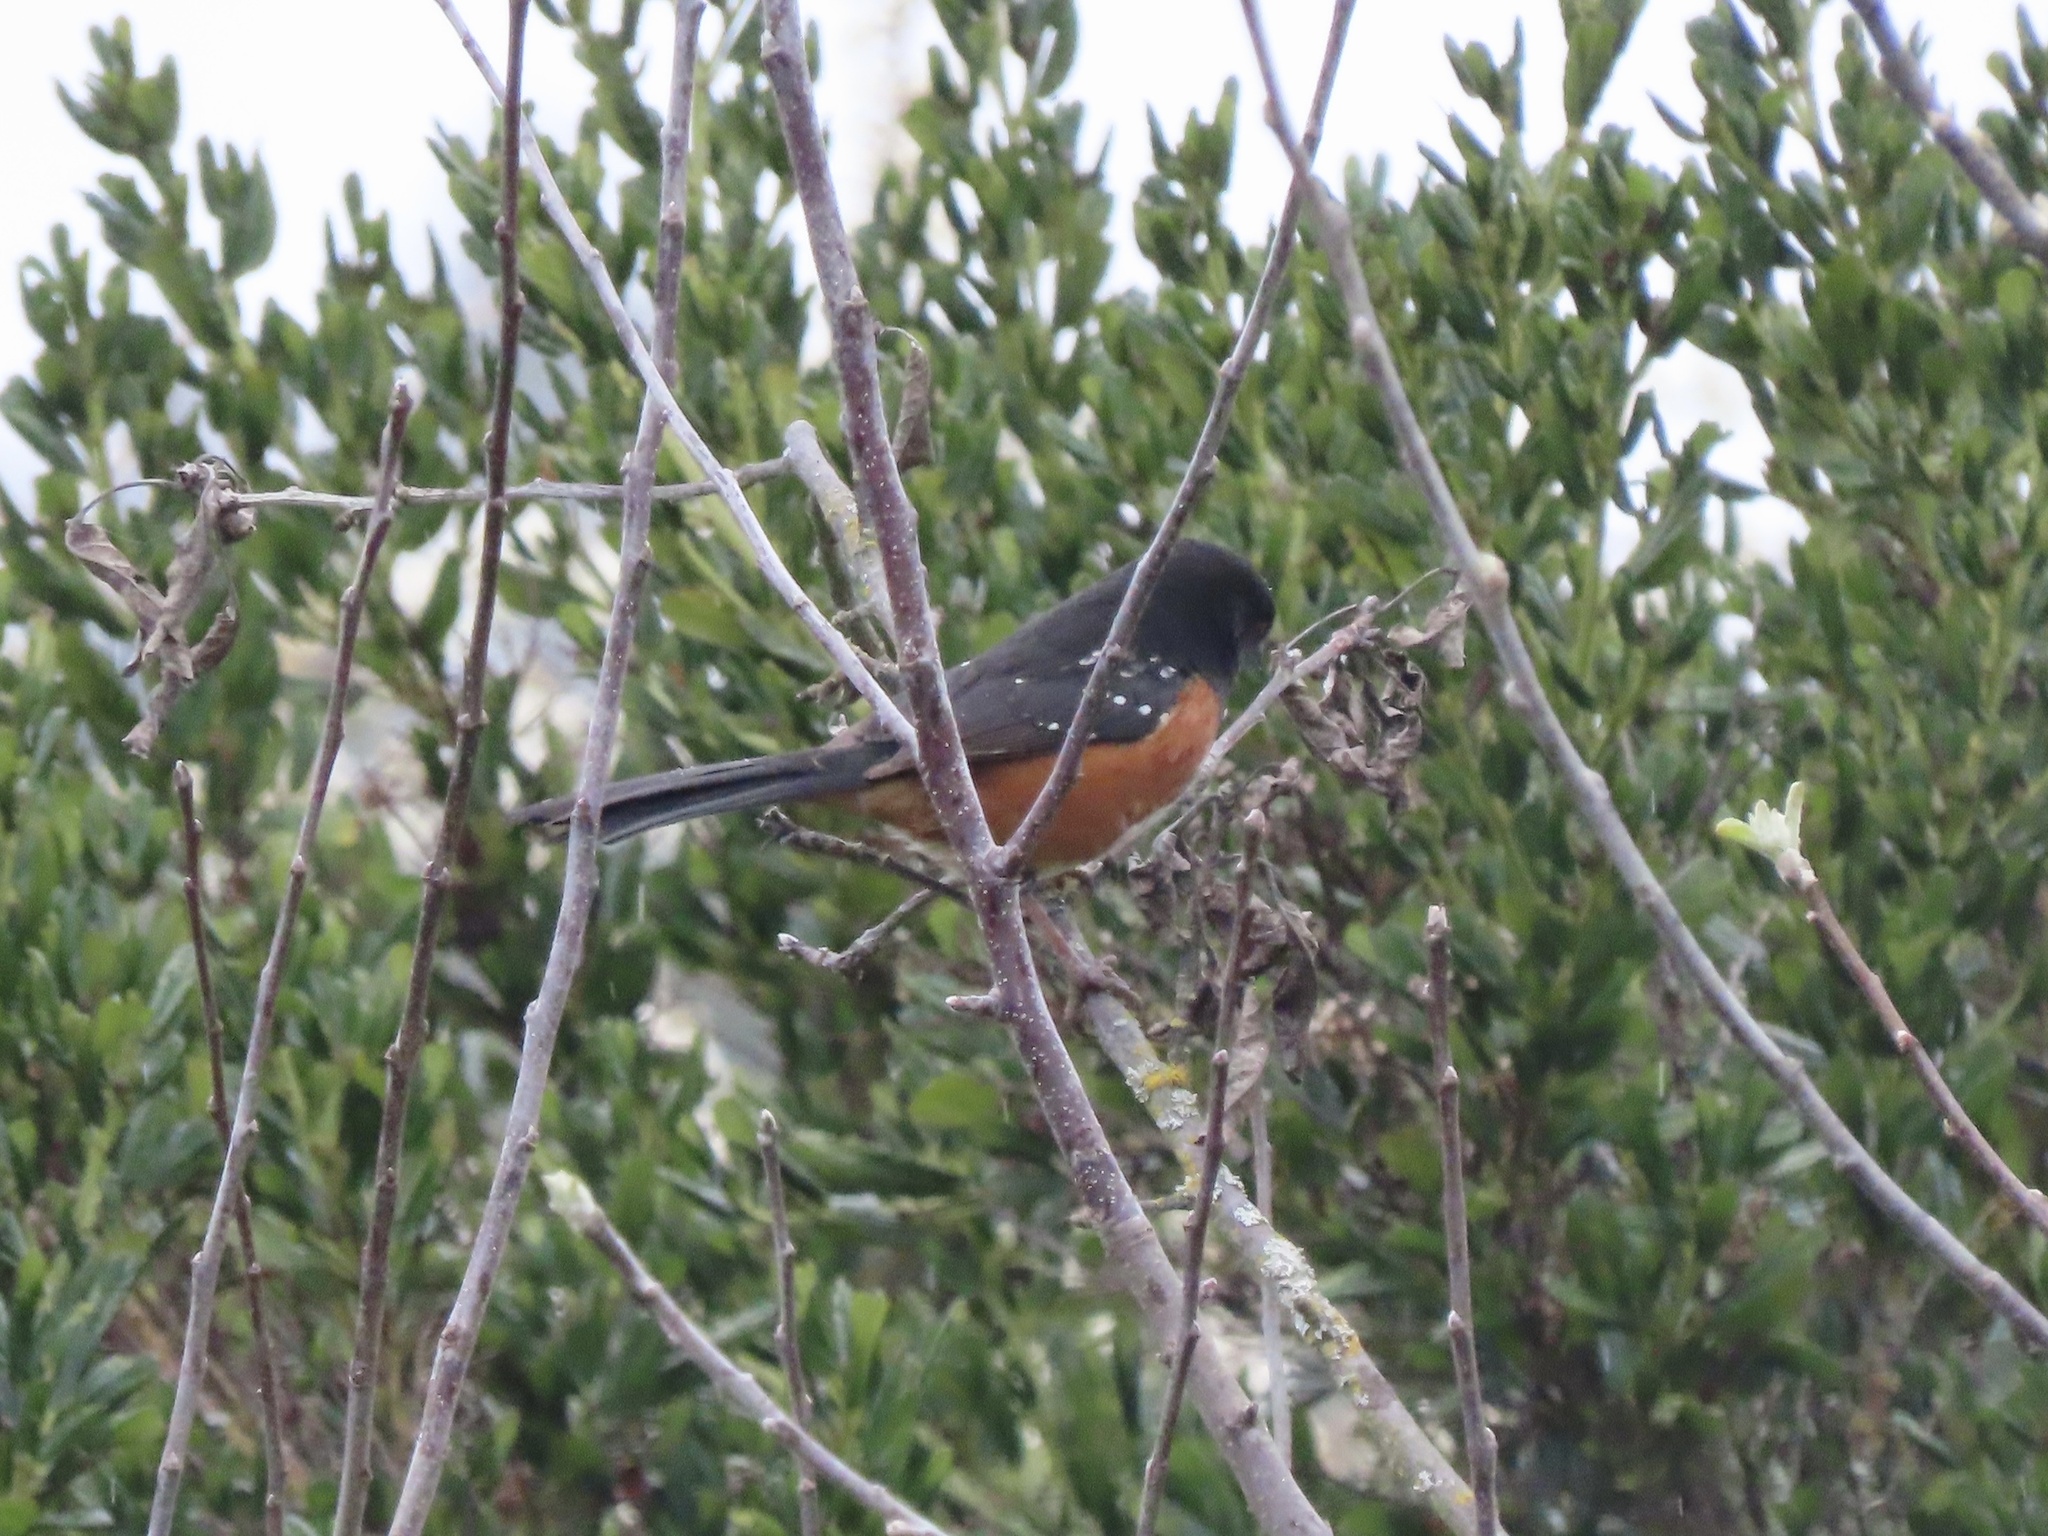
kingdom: Animalia
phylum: Chordata
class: Aves
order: Passeriformes
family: Passerellidae
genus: Pipilo
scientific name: Pipilo maculatus
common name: Spotted towhee
